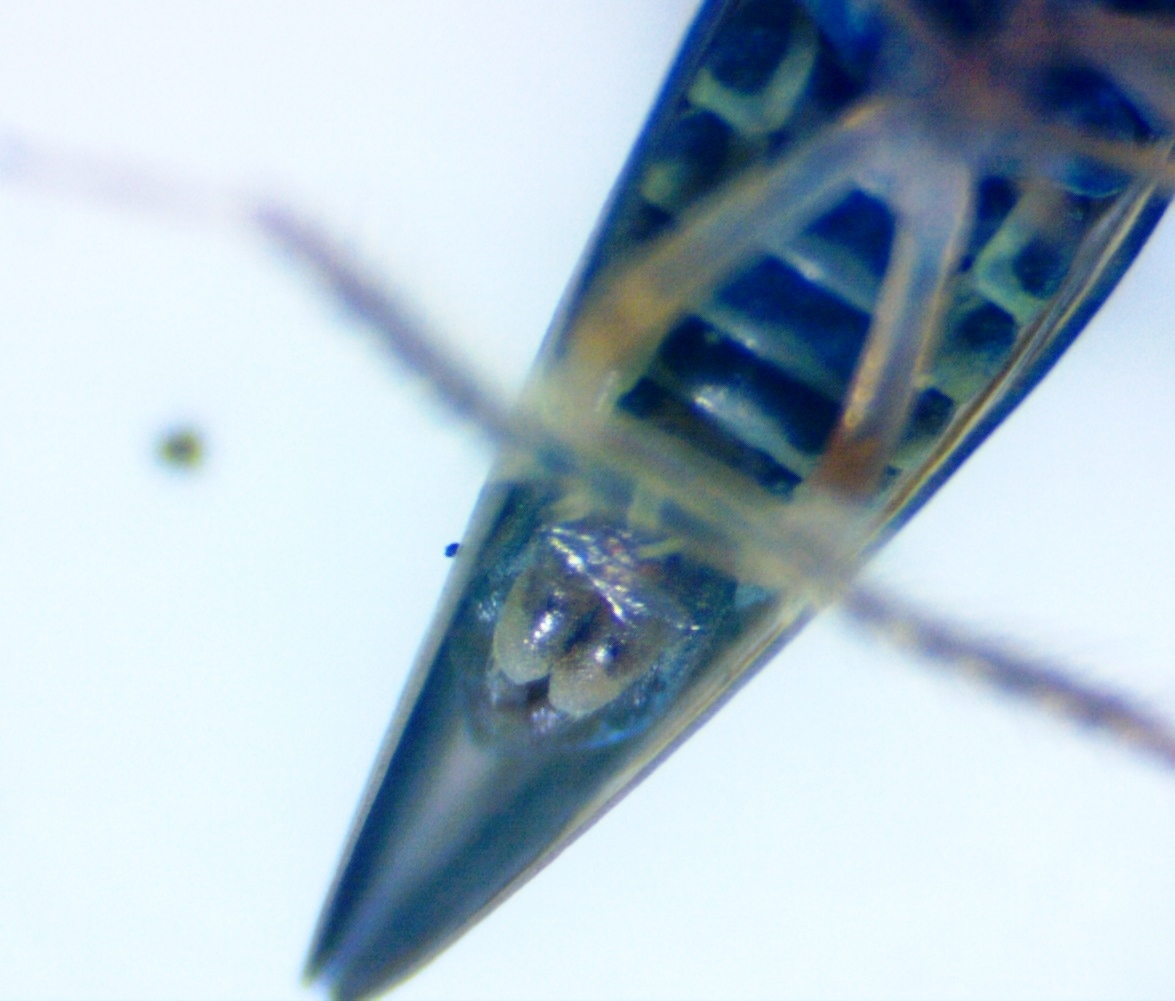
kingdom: Animalia
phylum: Arthropoda
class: Insecta
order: Hemiptera
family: Cicadellidae
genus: Agalliopsis
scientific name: Agalliopsis novella
